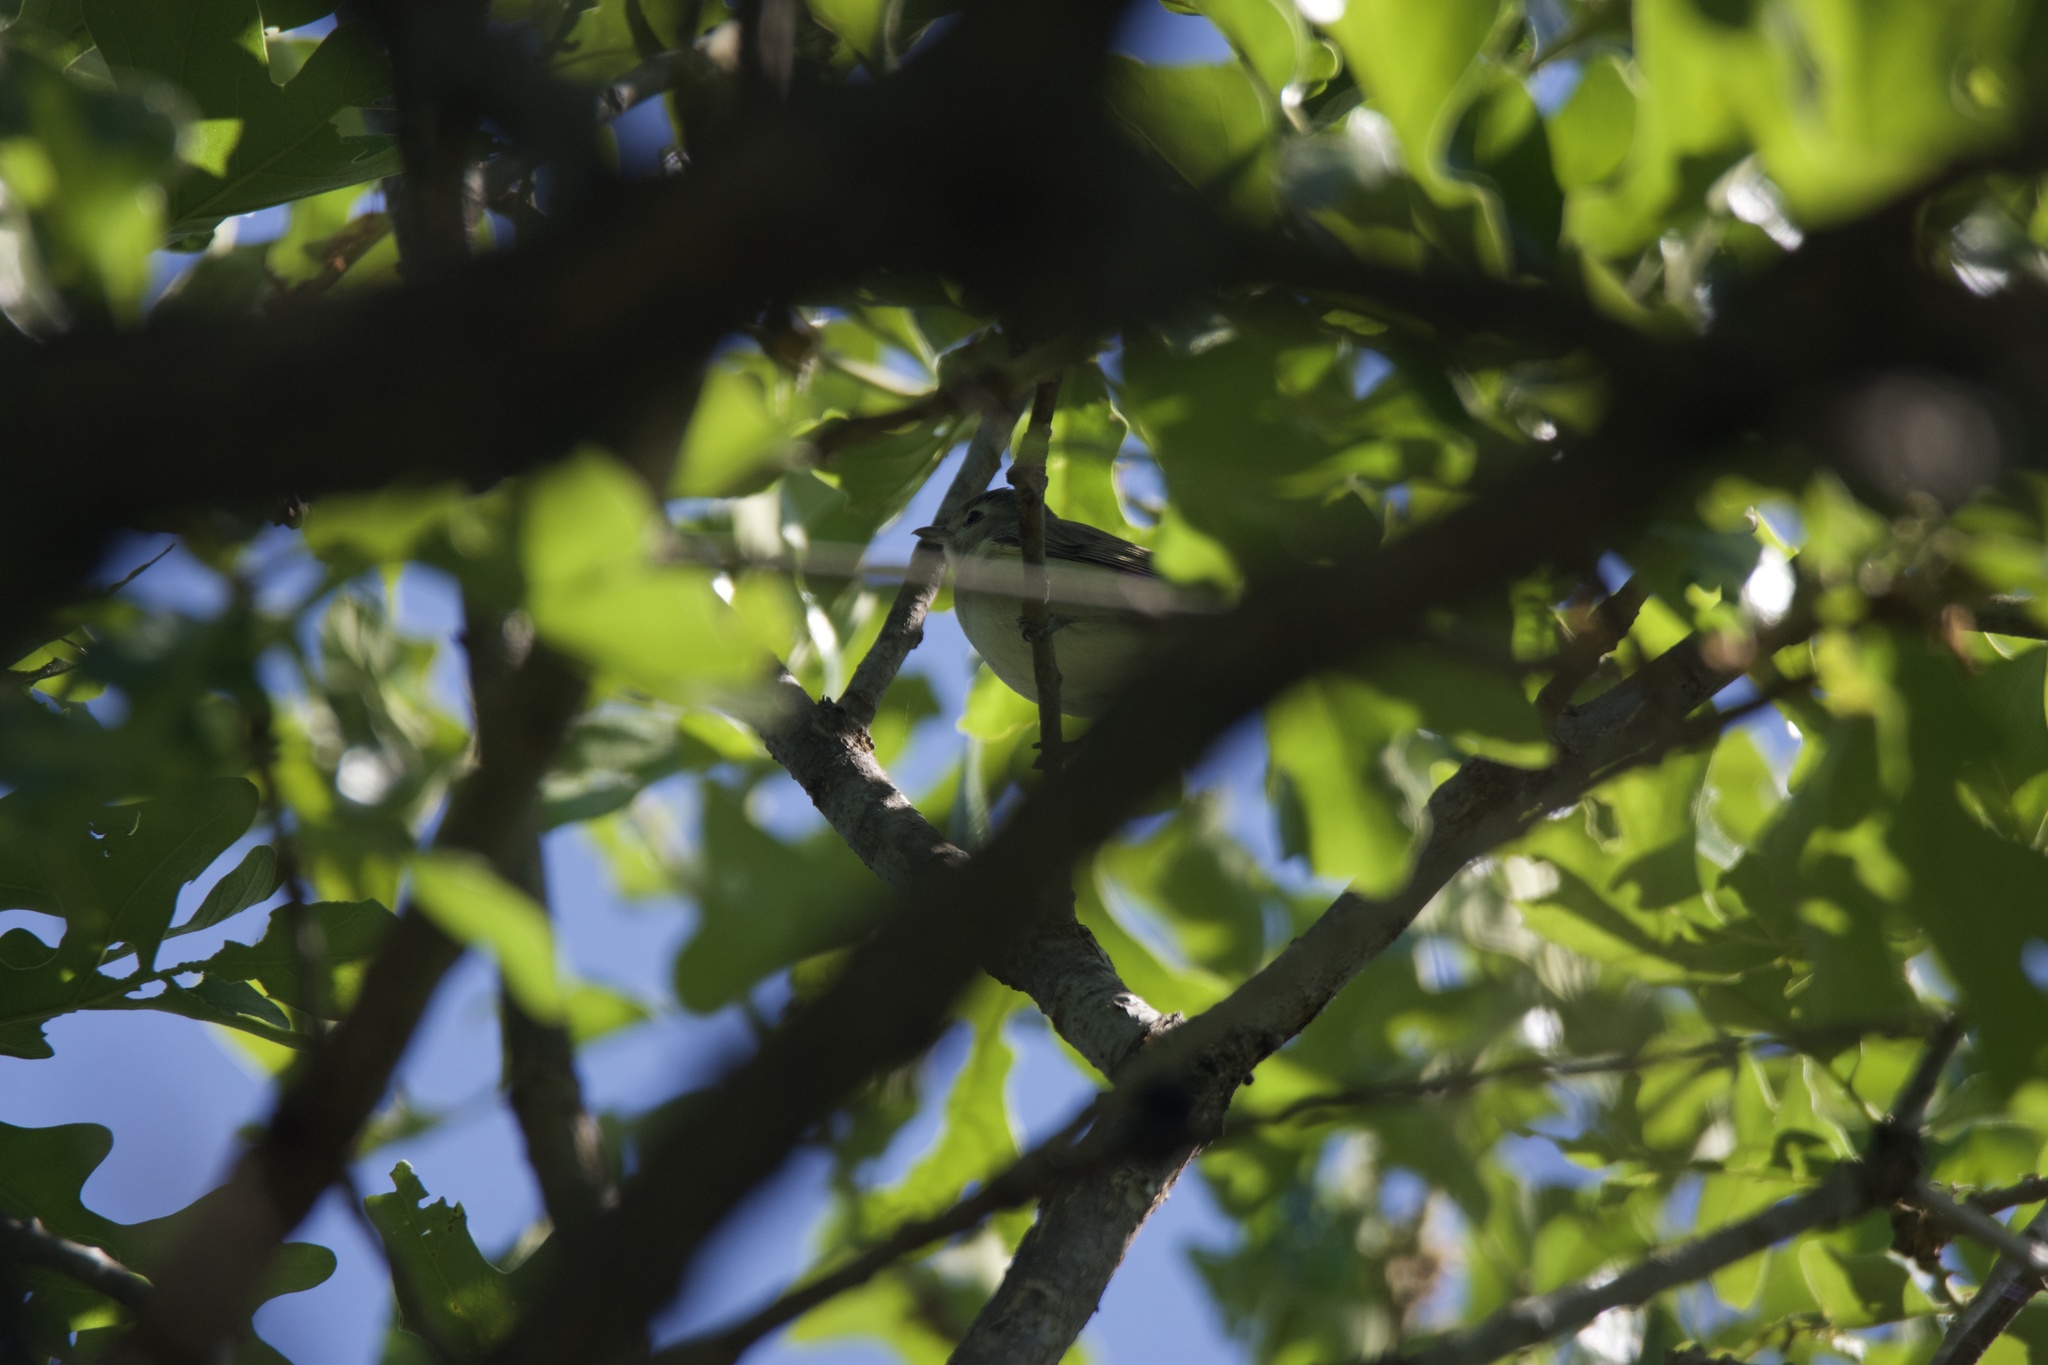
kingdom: Animalia
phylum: Chordata
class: Aves
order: Passeriformes
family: Vireonidae
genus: Vireo
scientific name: Vireo gilvus
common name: Warbling vireo
